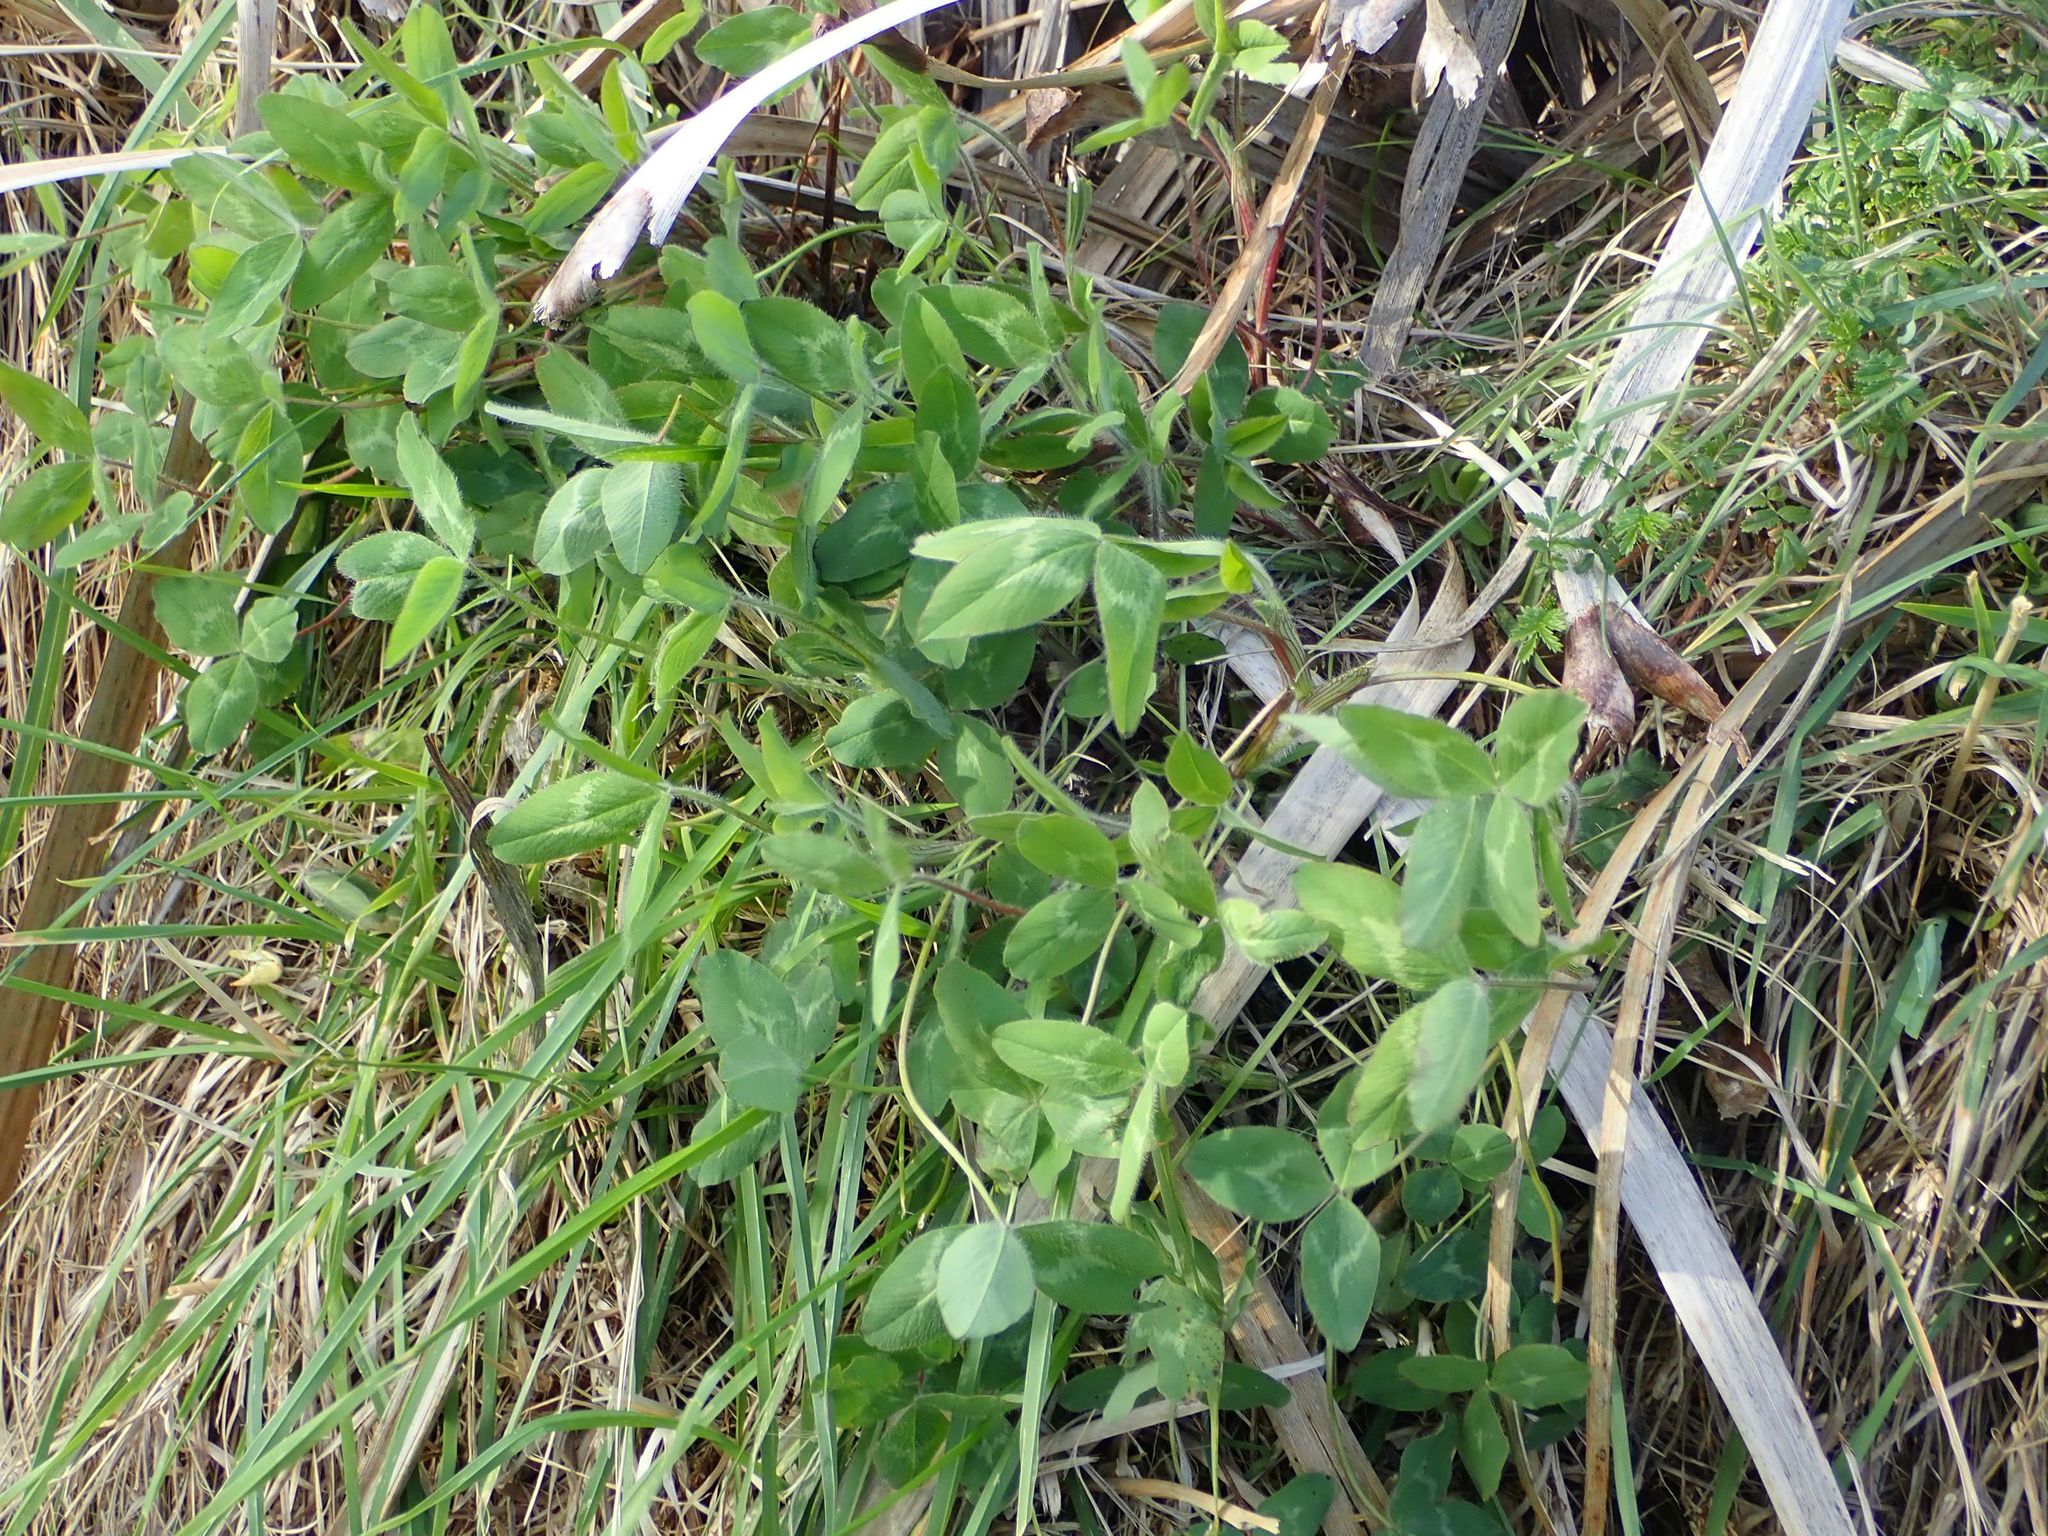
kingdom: Plantae
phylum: Tracheophyta
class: Magnoliopsida
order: Fabales
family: Fabaceae
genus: Trifolium
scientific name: Trifolium pratense
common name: Red clover
